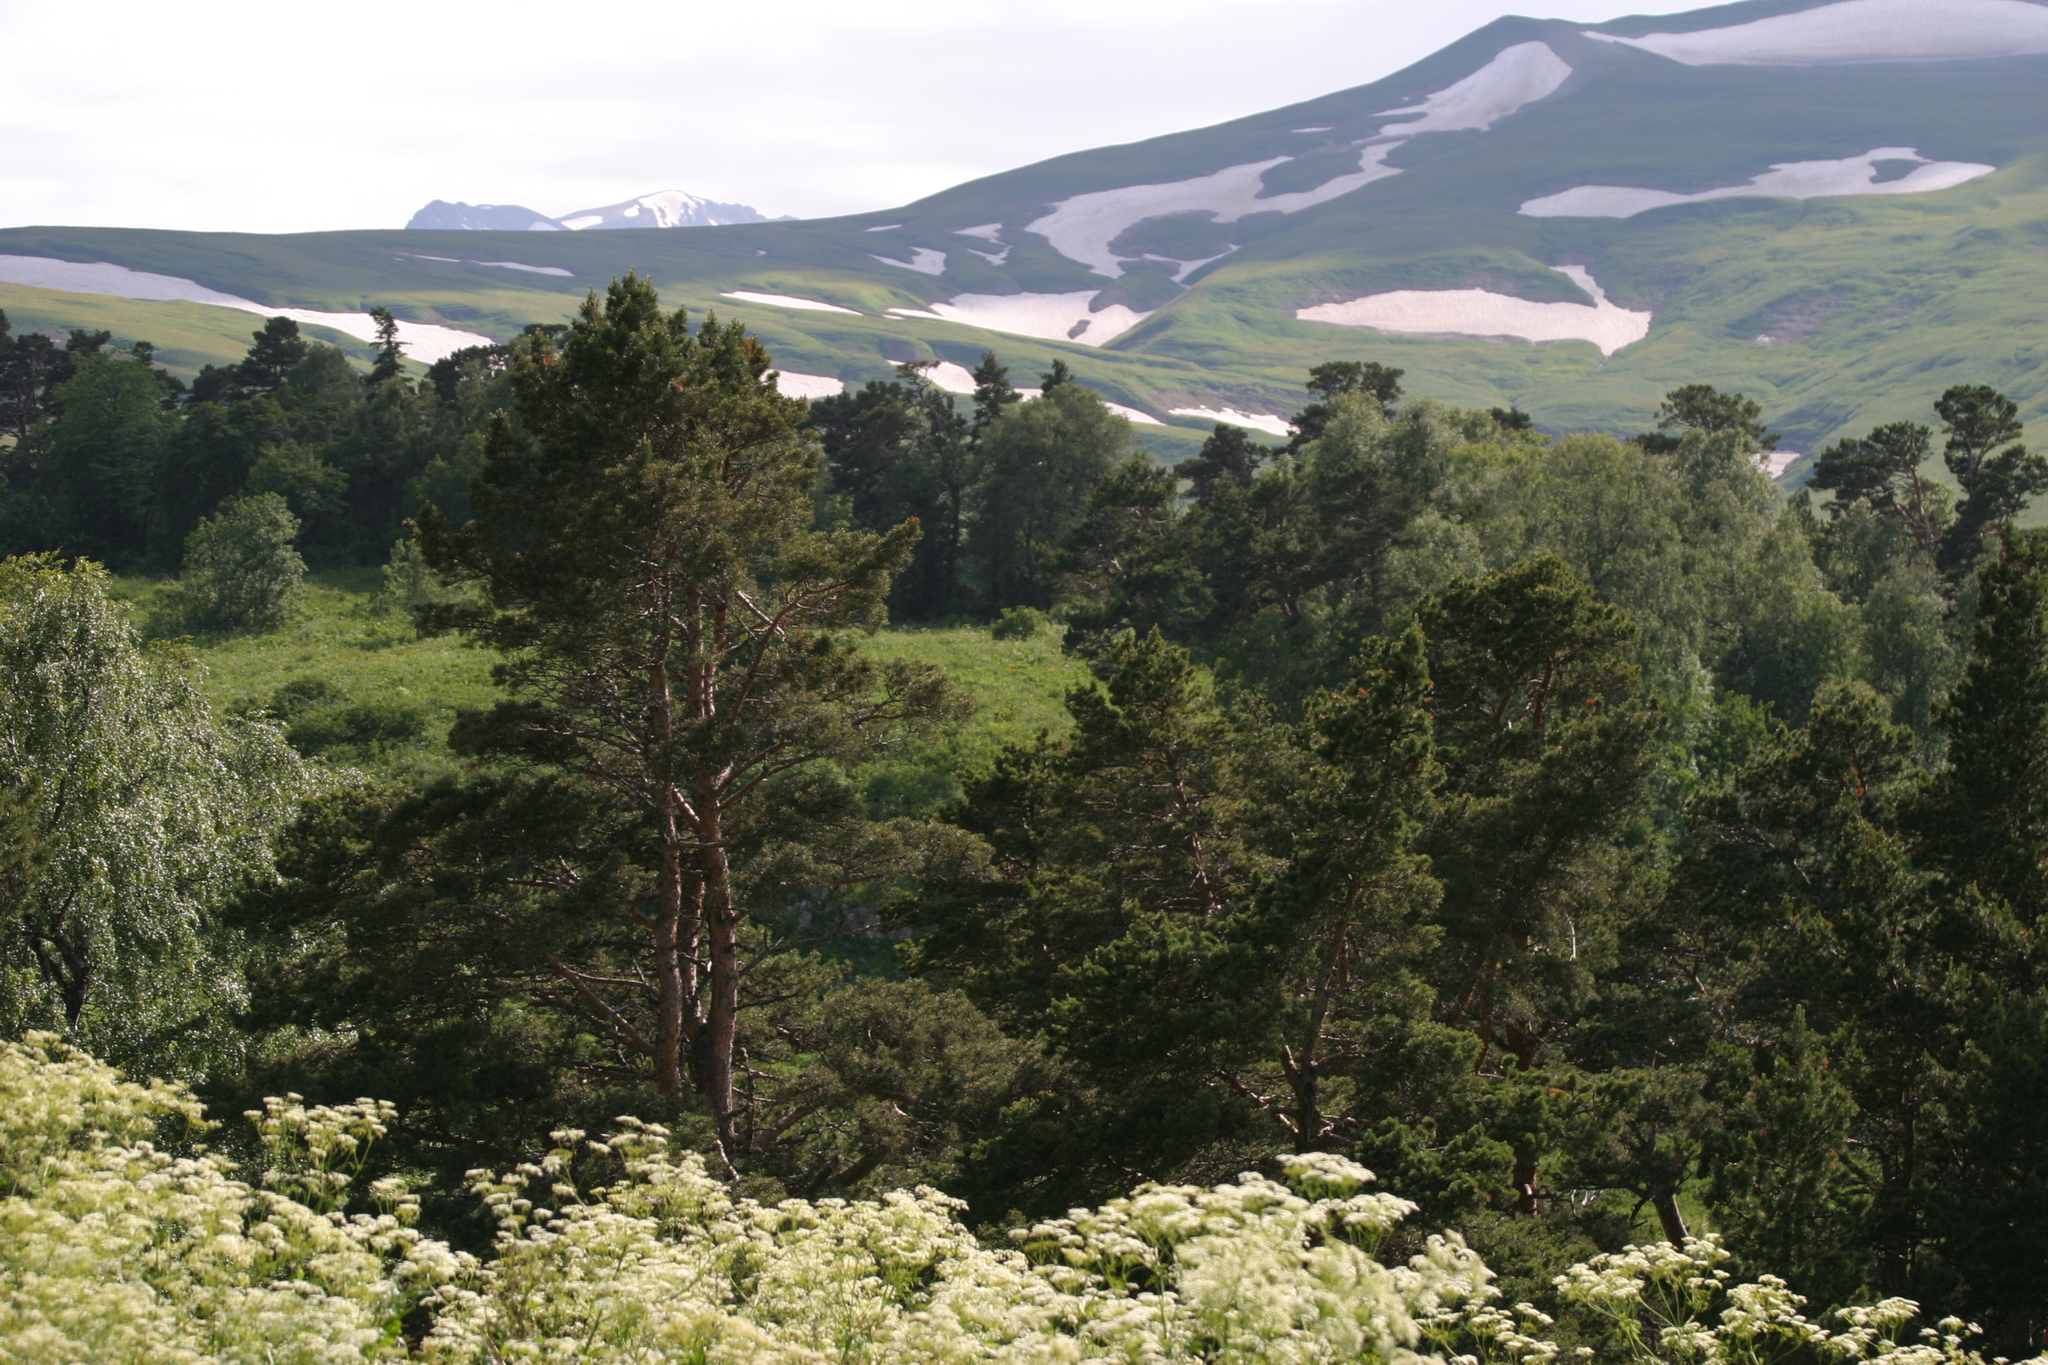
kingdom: Plantae
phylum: Tracheophyta
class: Pinopsida
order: Pinales
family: Pinaceae
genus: Pinus
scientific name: Pinus sylvestris
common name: Scots pine
